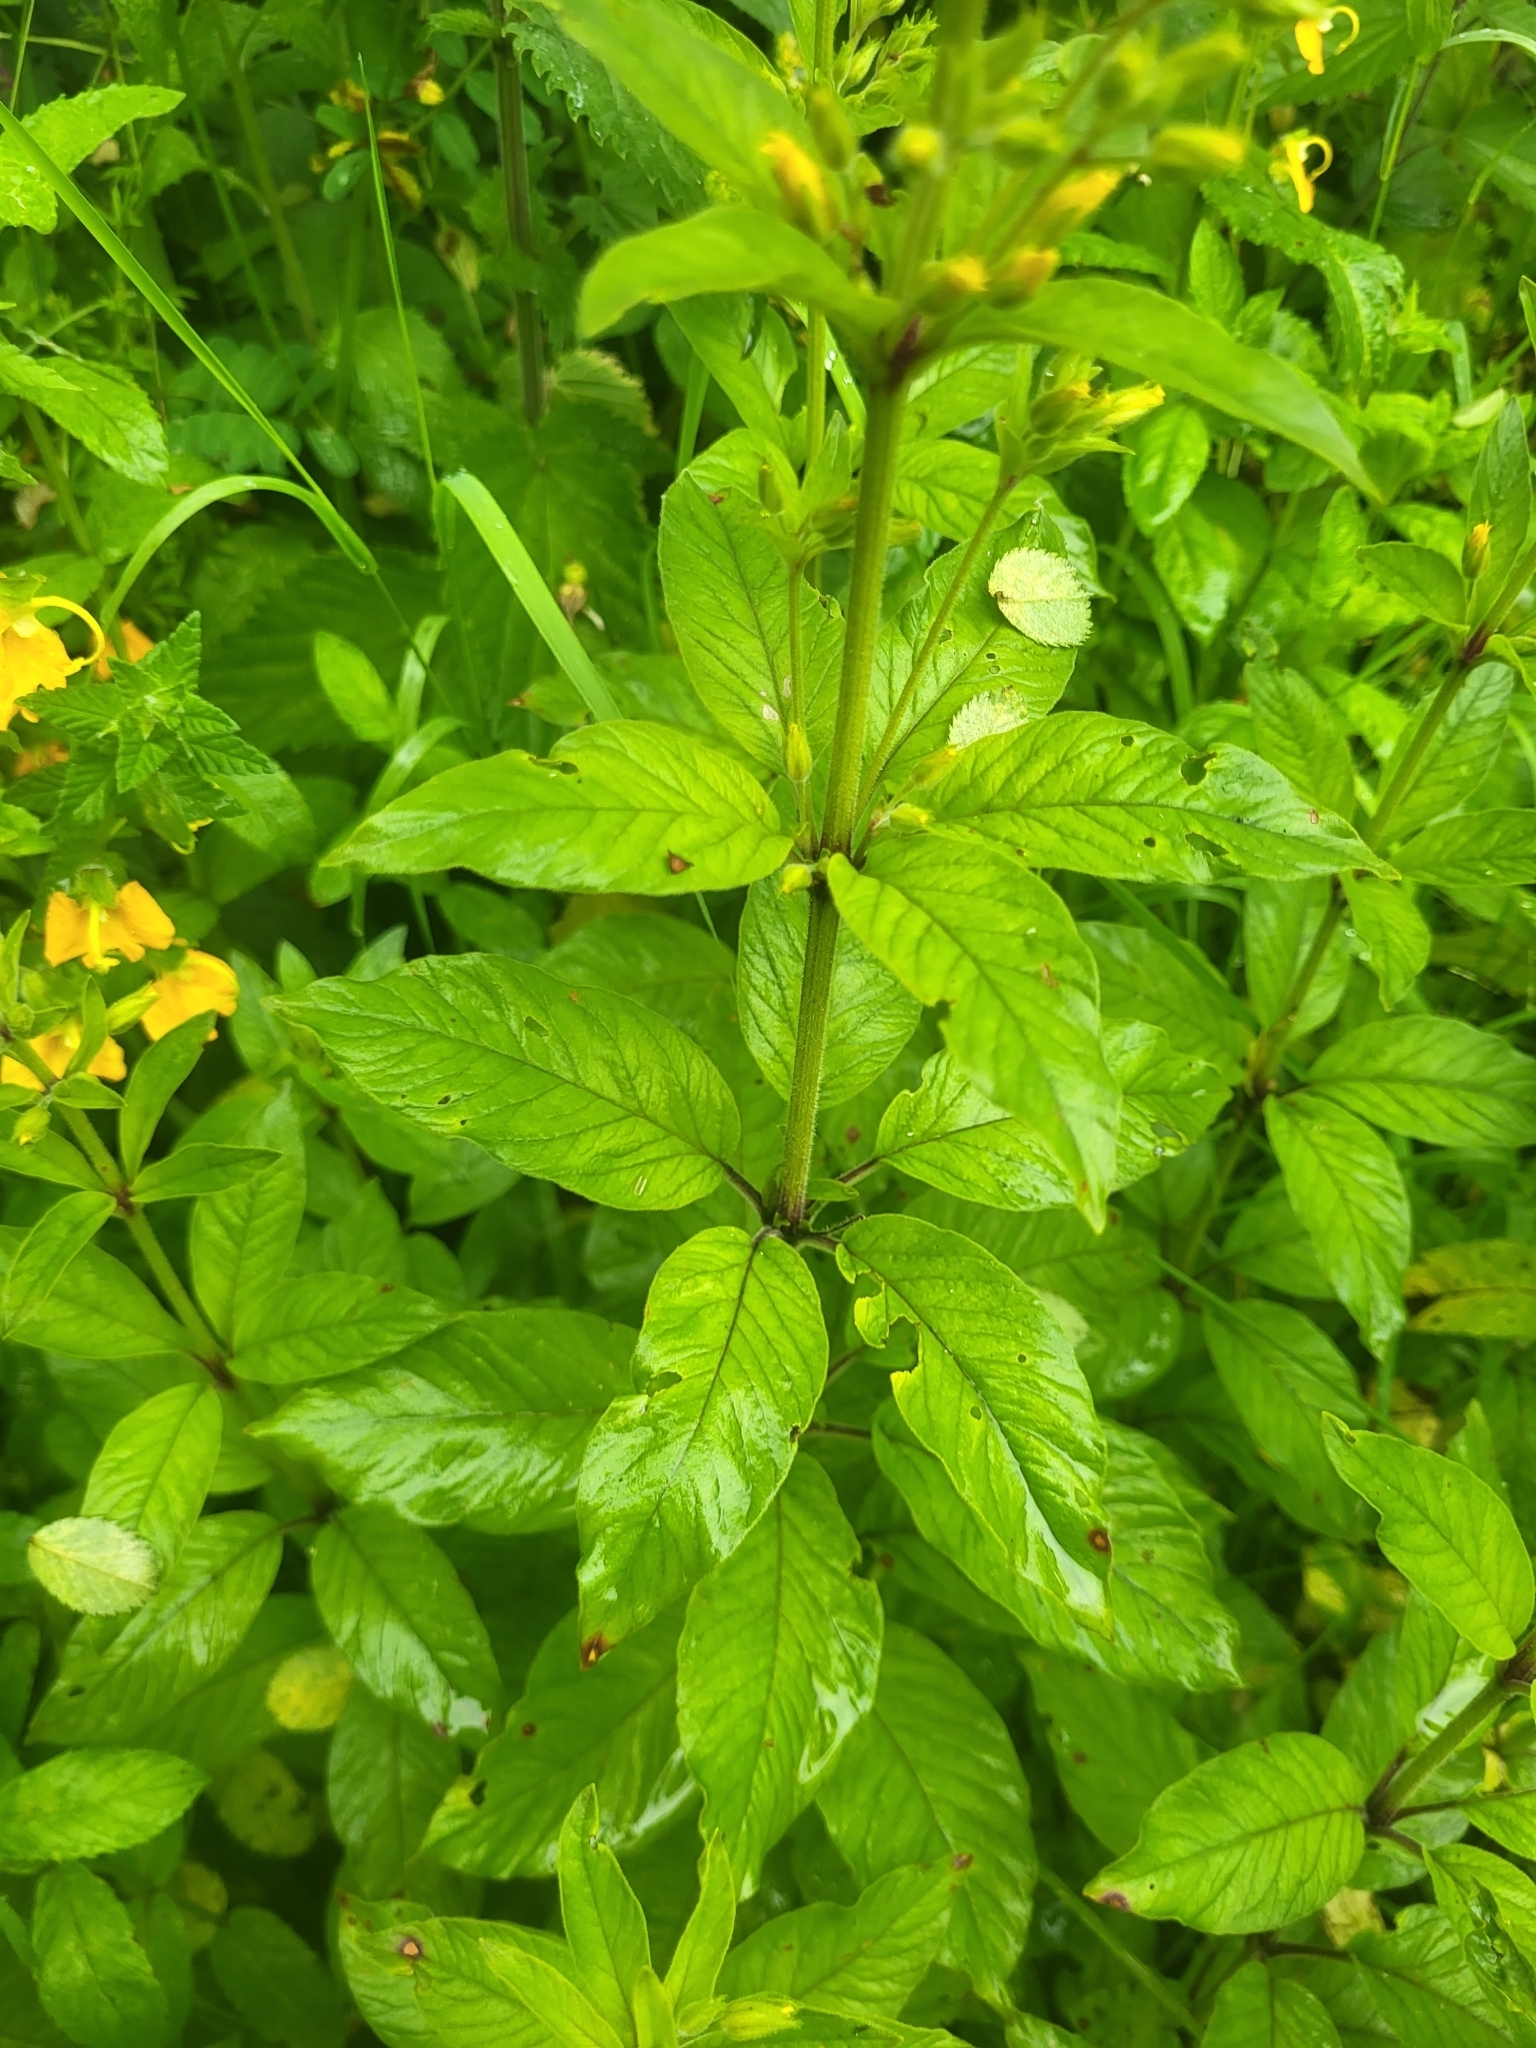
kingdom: Plantae
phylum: Tracheophyta
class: Magnoliopsida
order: Ericales
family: Primulaceae
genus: Lysimachia
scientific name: Lysimachia verticillaris
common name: Yellow loosestrife
